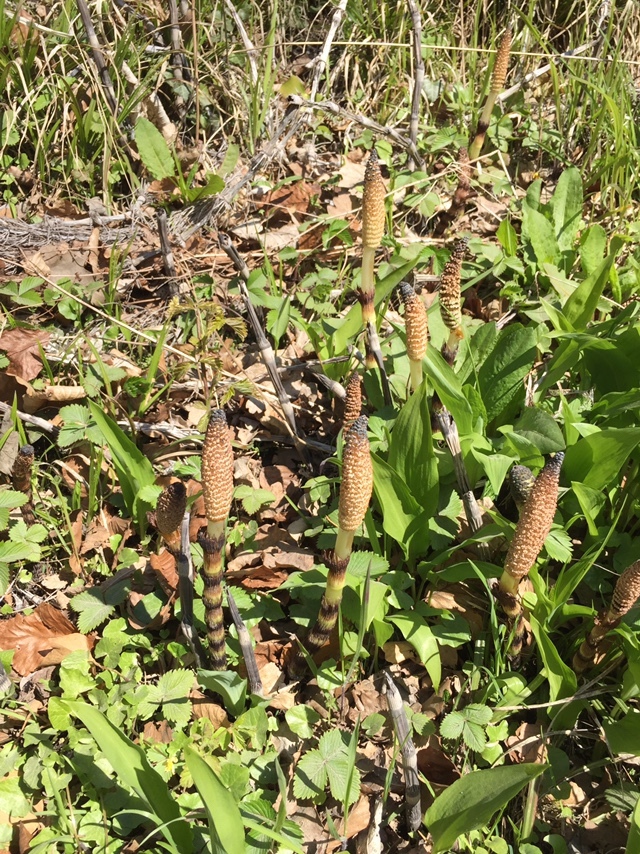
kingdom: Plantae
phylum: Tracheophyta
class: Polypodiopsida
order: Equisetales
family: Equisetaceae
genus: Equisetum
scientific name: Equisetum telmateia
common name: Great horsetail
